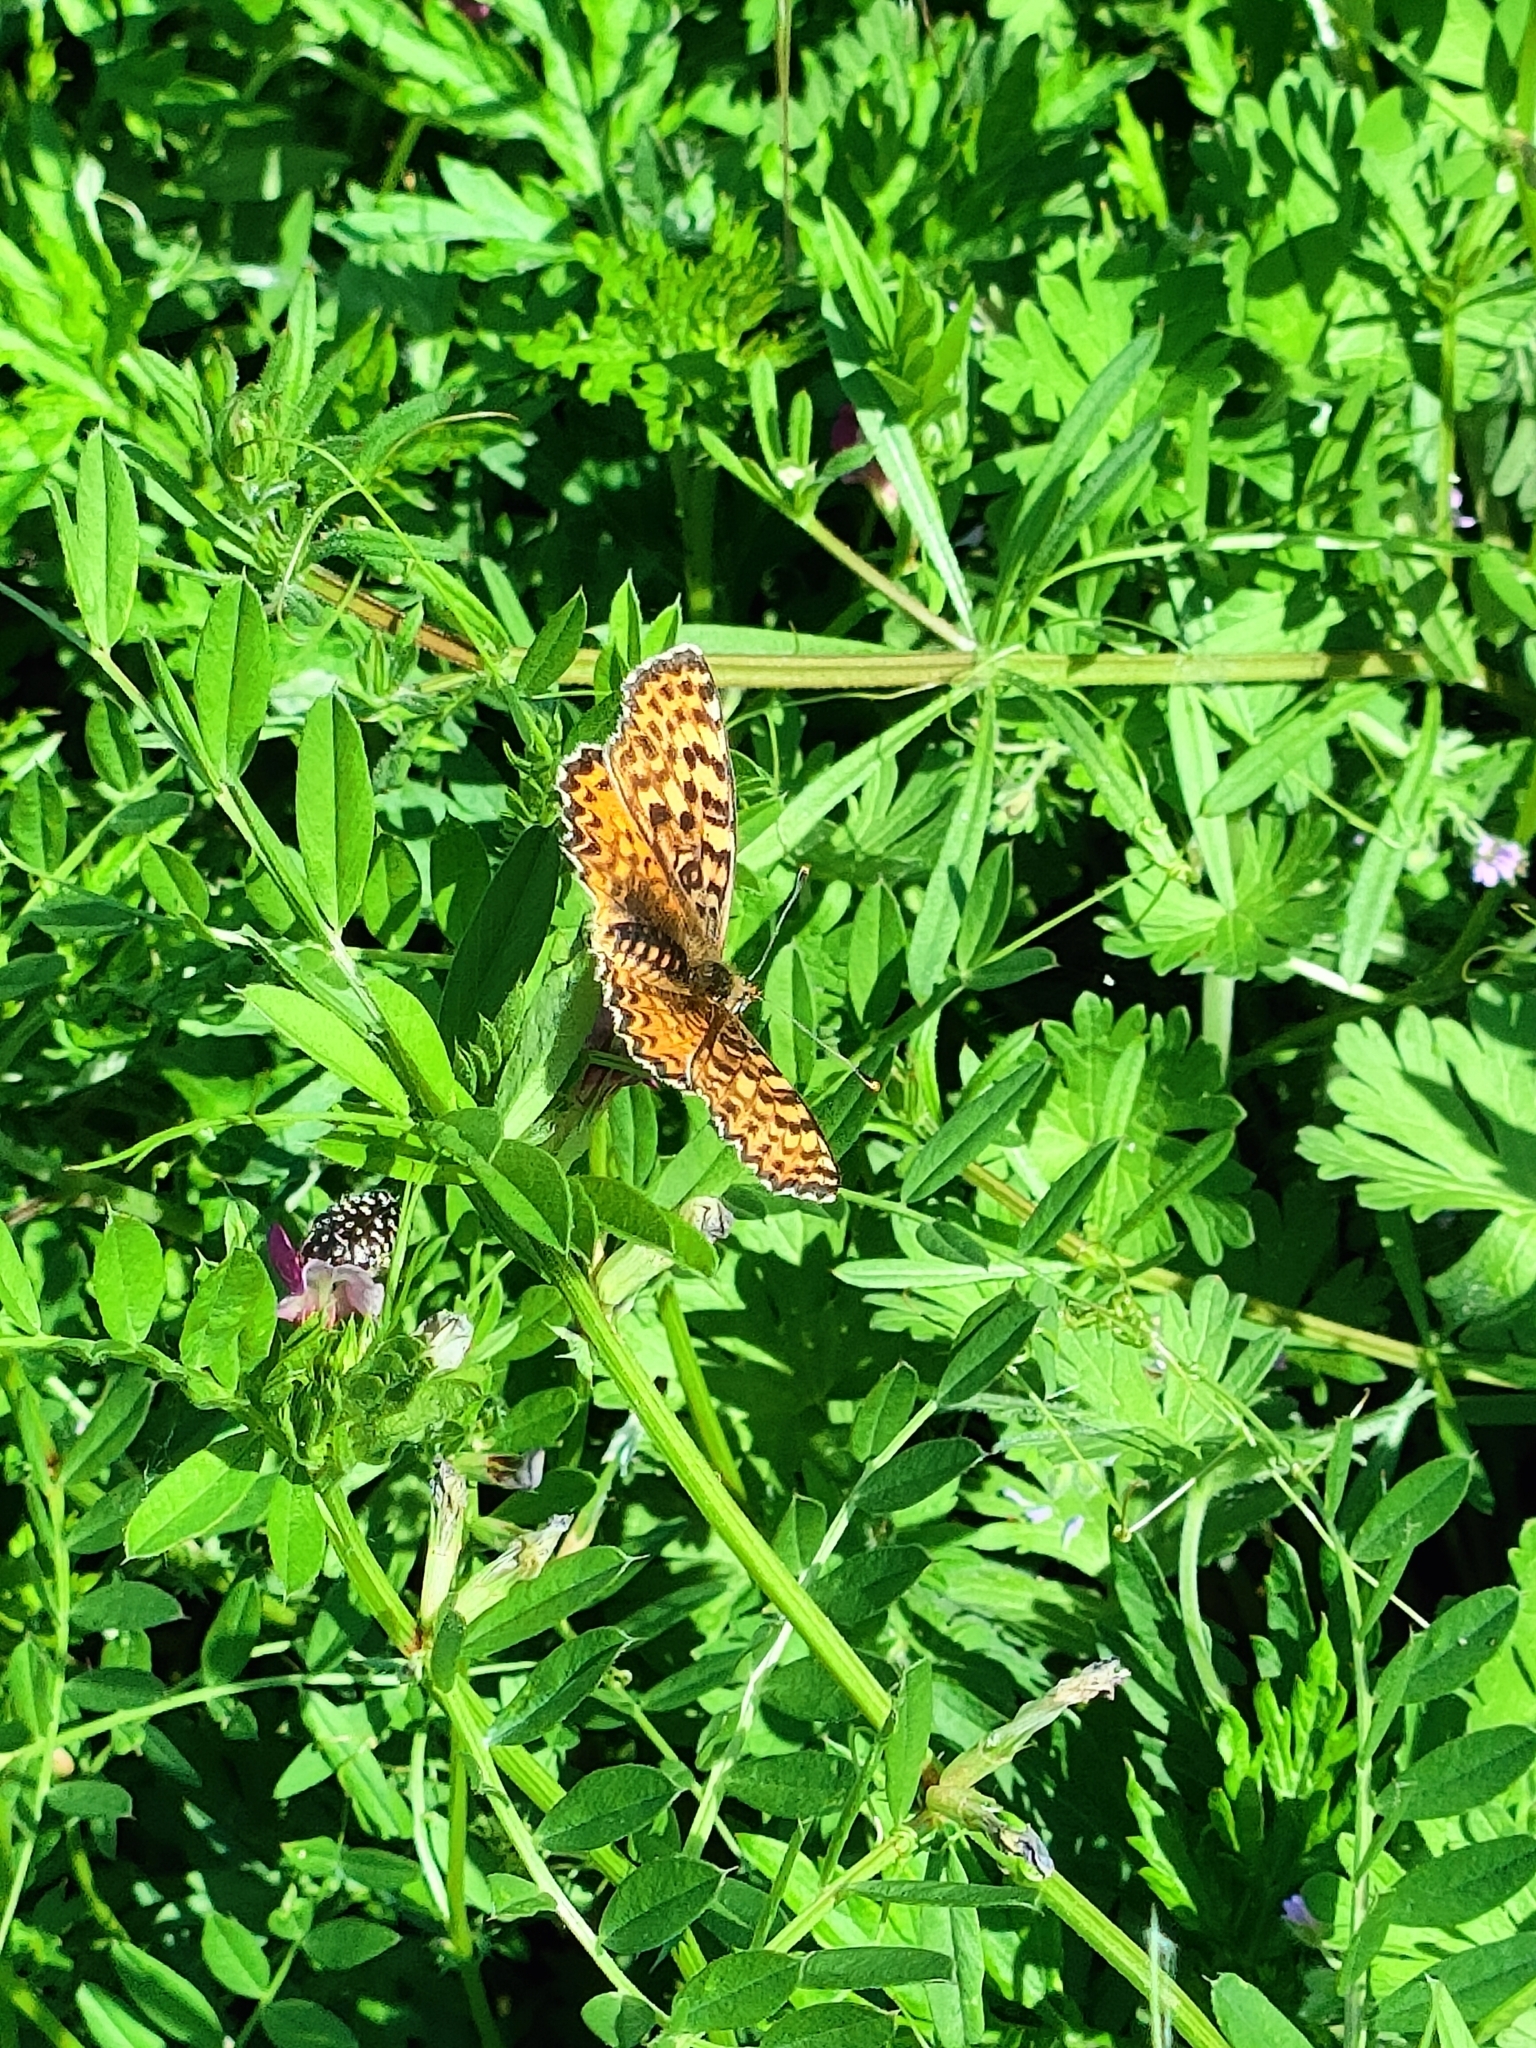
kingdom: Animalia
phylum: Arthropoda
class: Insecta
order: Lepidoptera
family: Nymphalidae
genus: Melitaea
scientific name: Melitaea didyma
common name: Spotted fritillary
